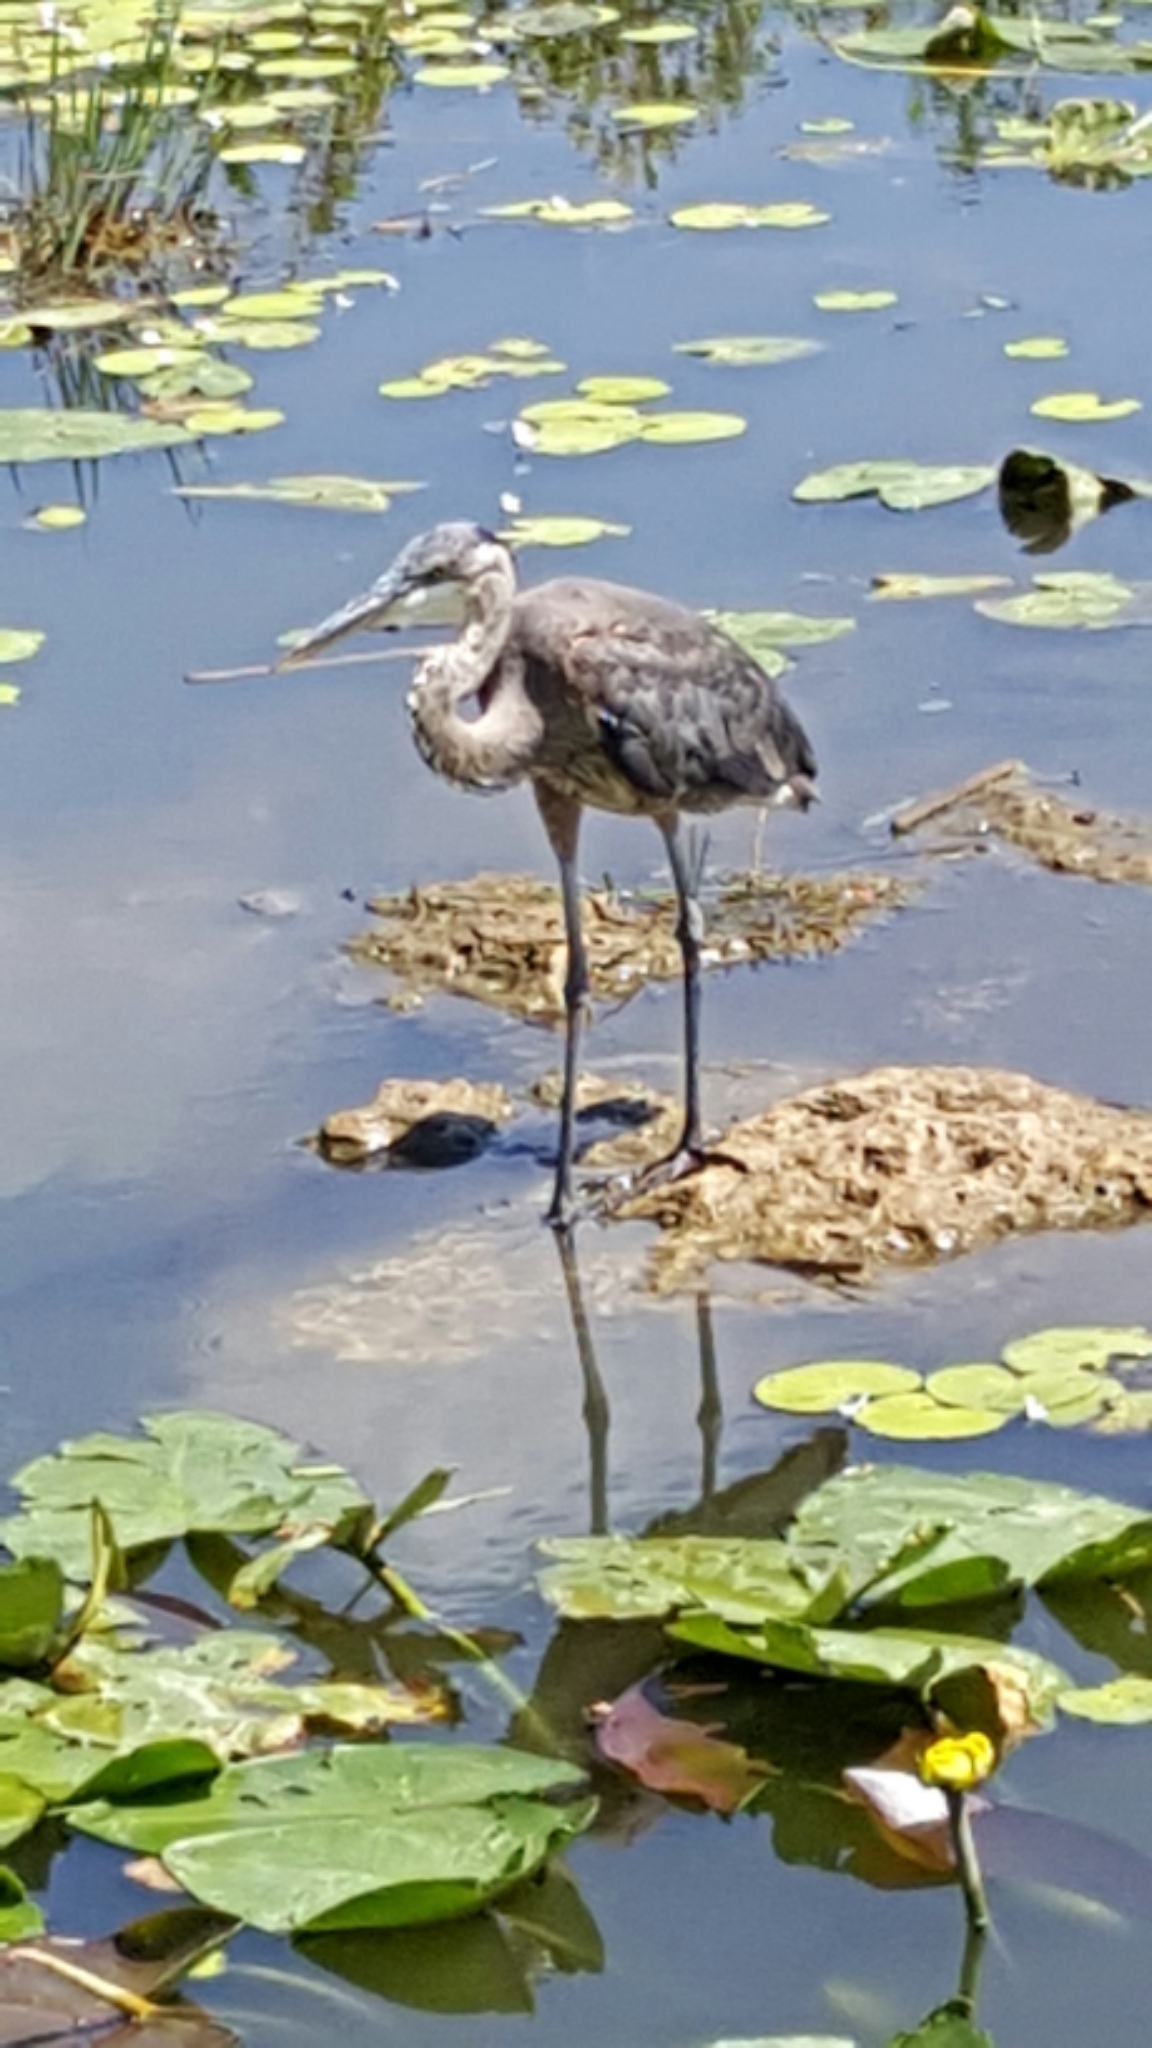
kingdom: Animalia
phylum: Chordata
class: Aves
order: Pelecaniformes
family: Ardeidae
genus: Ardea
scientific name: Ardea herodias
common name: Great blue heron
